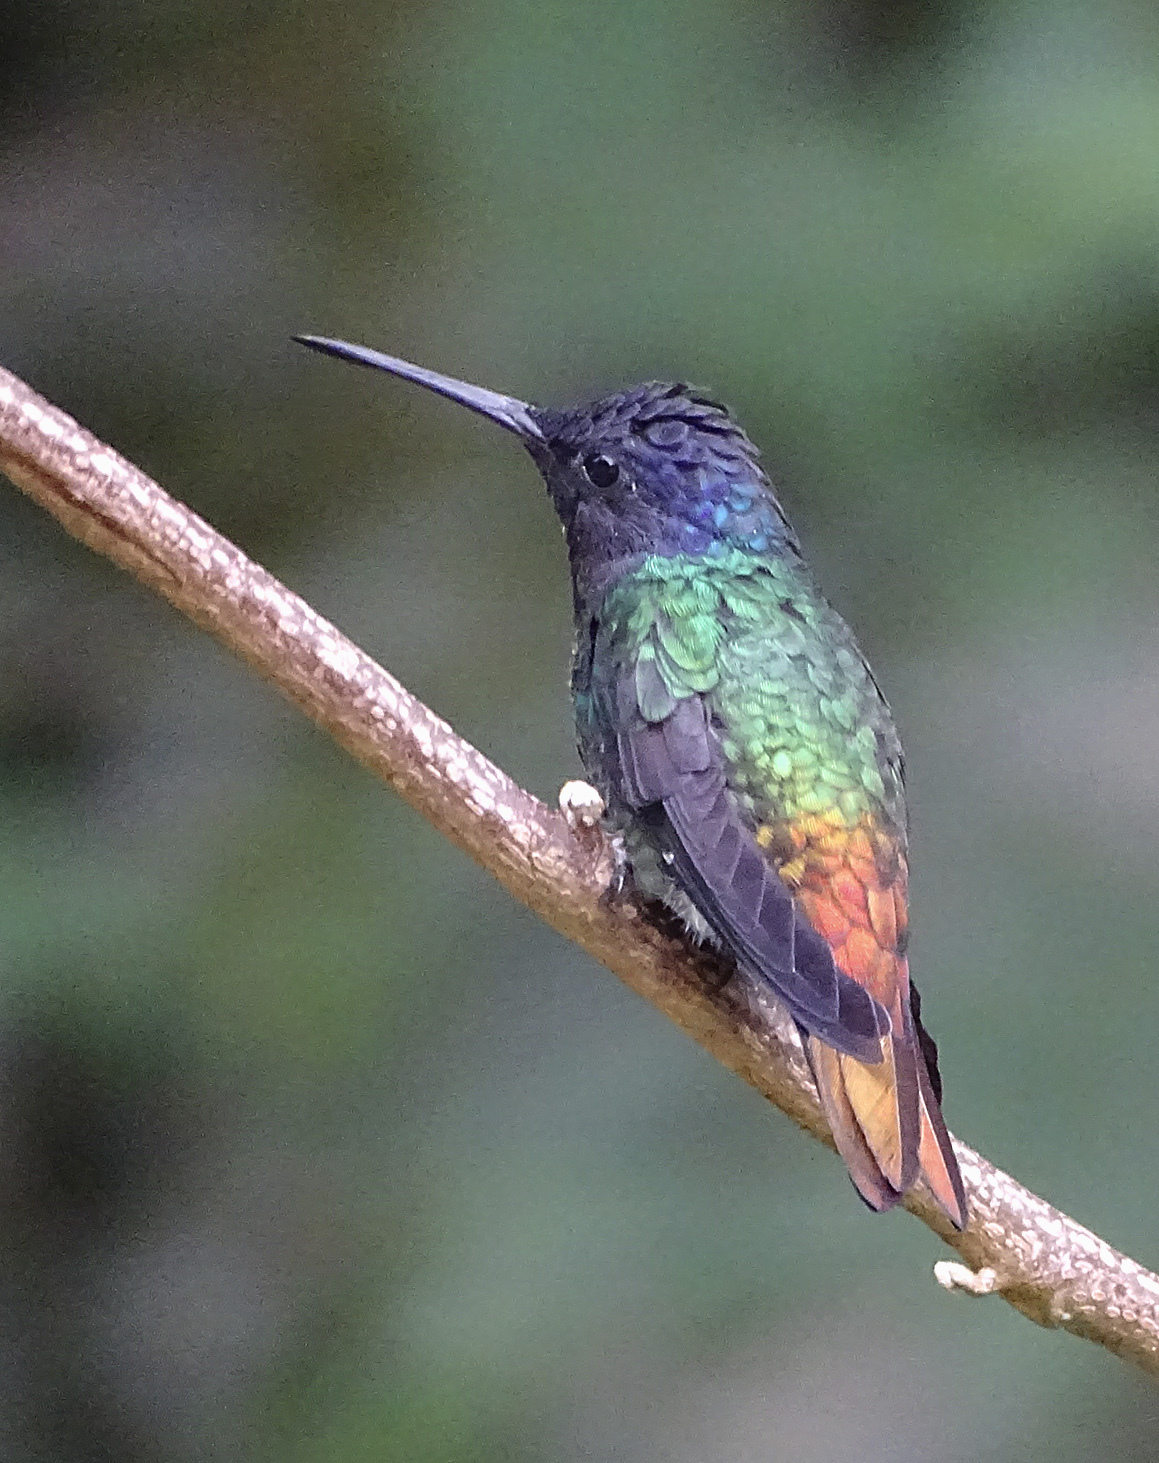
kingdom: Animalia
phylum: Chordata
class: Aves
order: Apodiformes
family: Trochilidae
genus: Chrysuronia
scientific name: Chrysuronia oenone
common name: Golden-tailed sapphire
